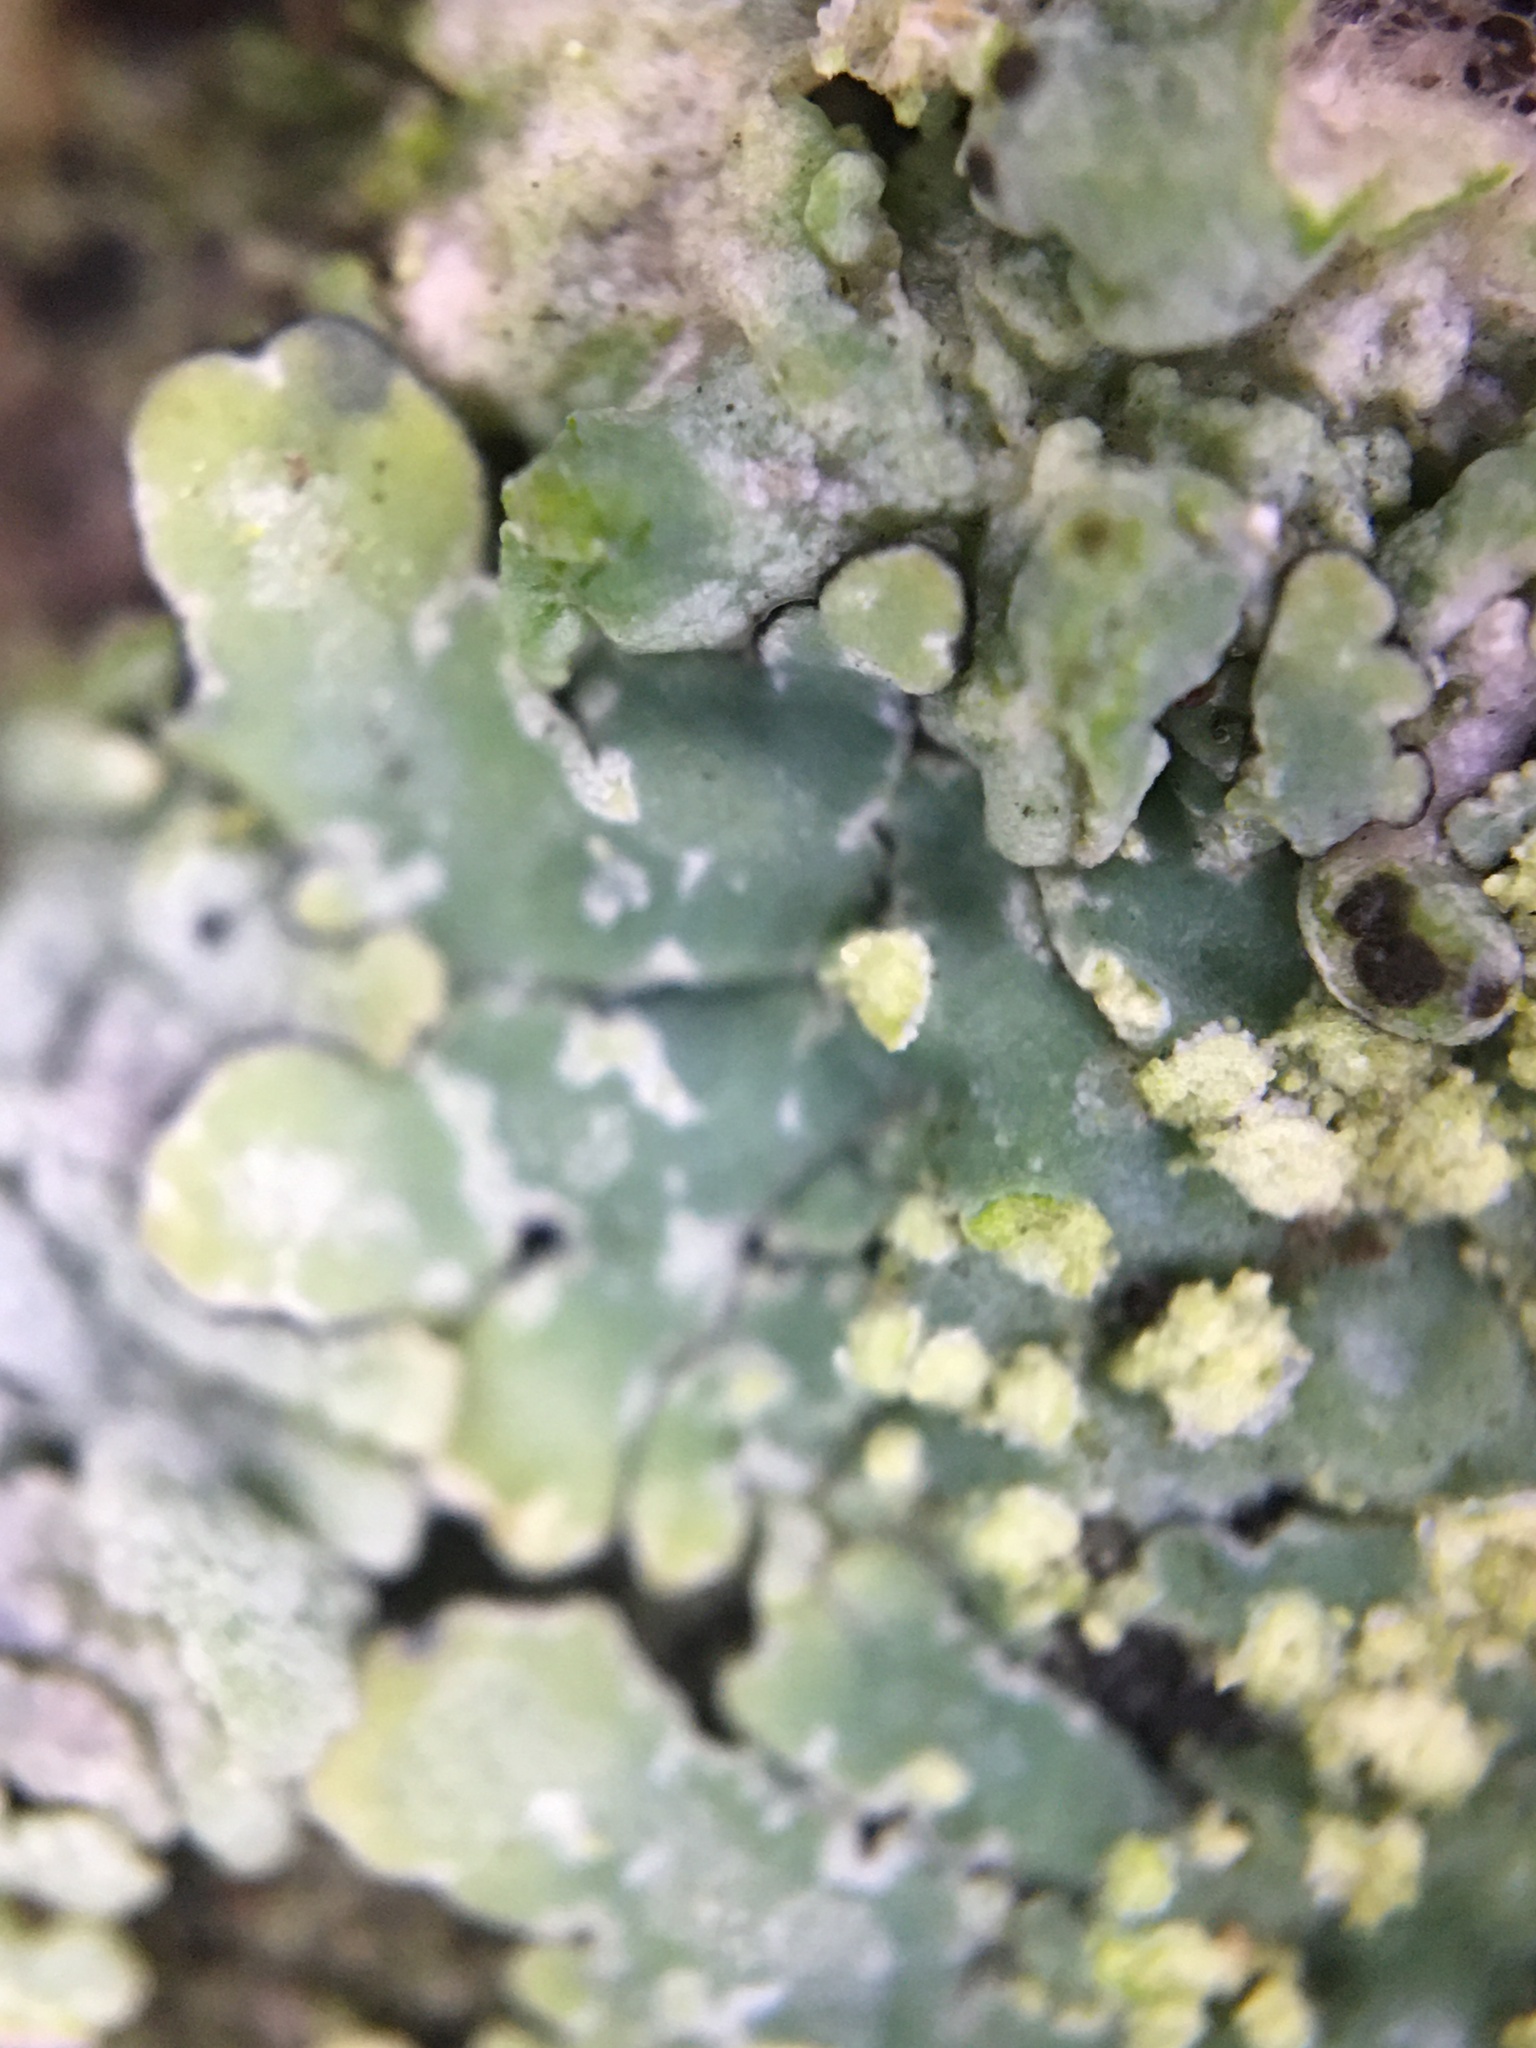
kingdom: Fungi
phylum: Ascomycota
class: Lecanoromycetes
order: Caliciales
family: Caliciaceae
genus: Pyxine
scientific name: Pyxine subcinerea
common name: Mustard lichen
